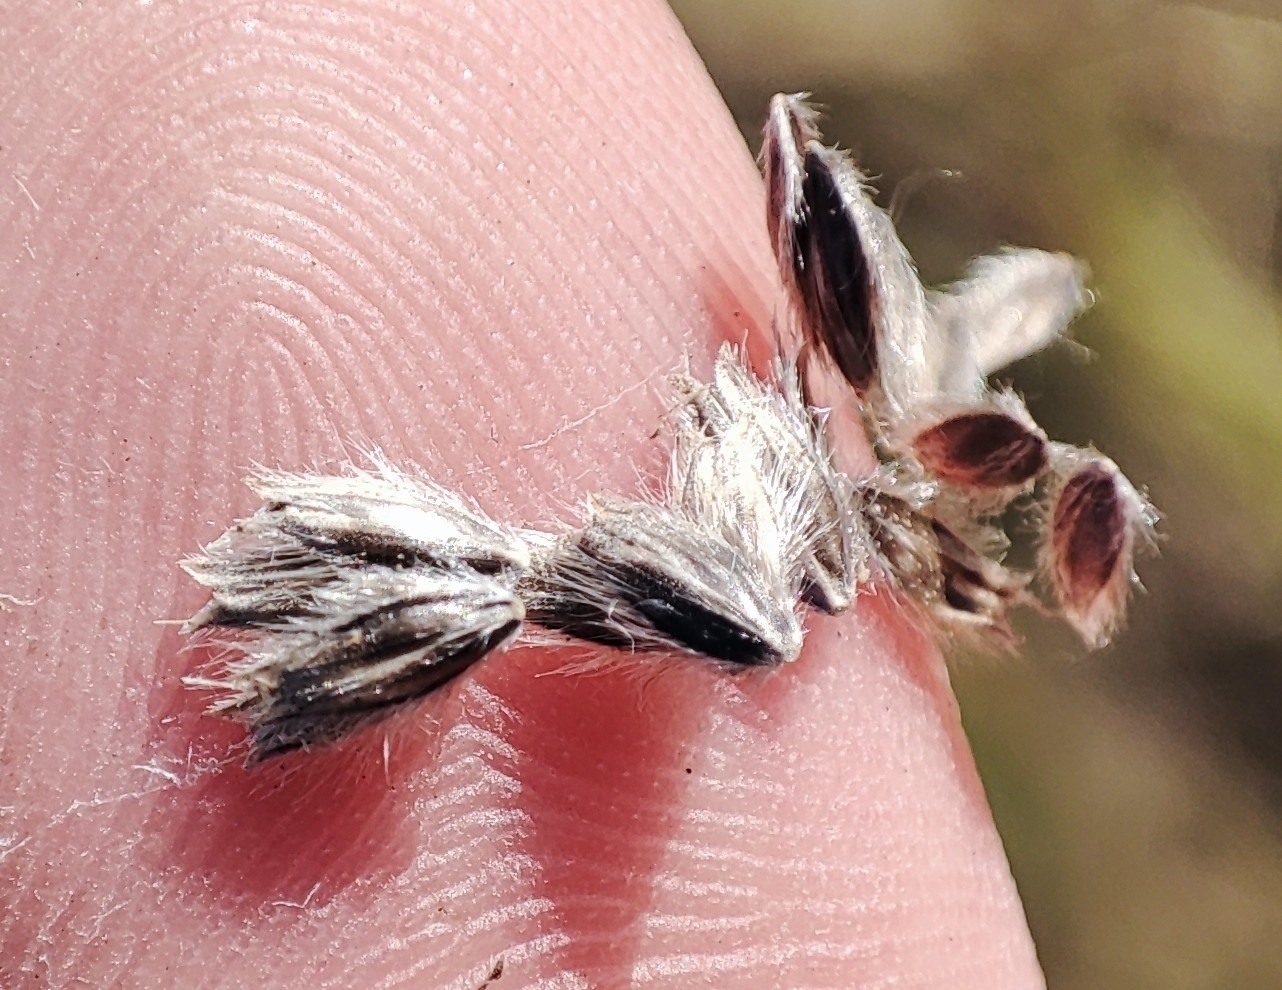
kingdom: Plantae
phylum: Tracheophyta
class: Liliopsida
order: Poales
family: Poaceae
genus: Alopecurus
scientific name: Alopecurus arundinaceus
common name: Creeping meadow foxtail
